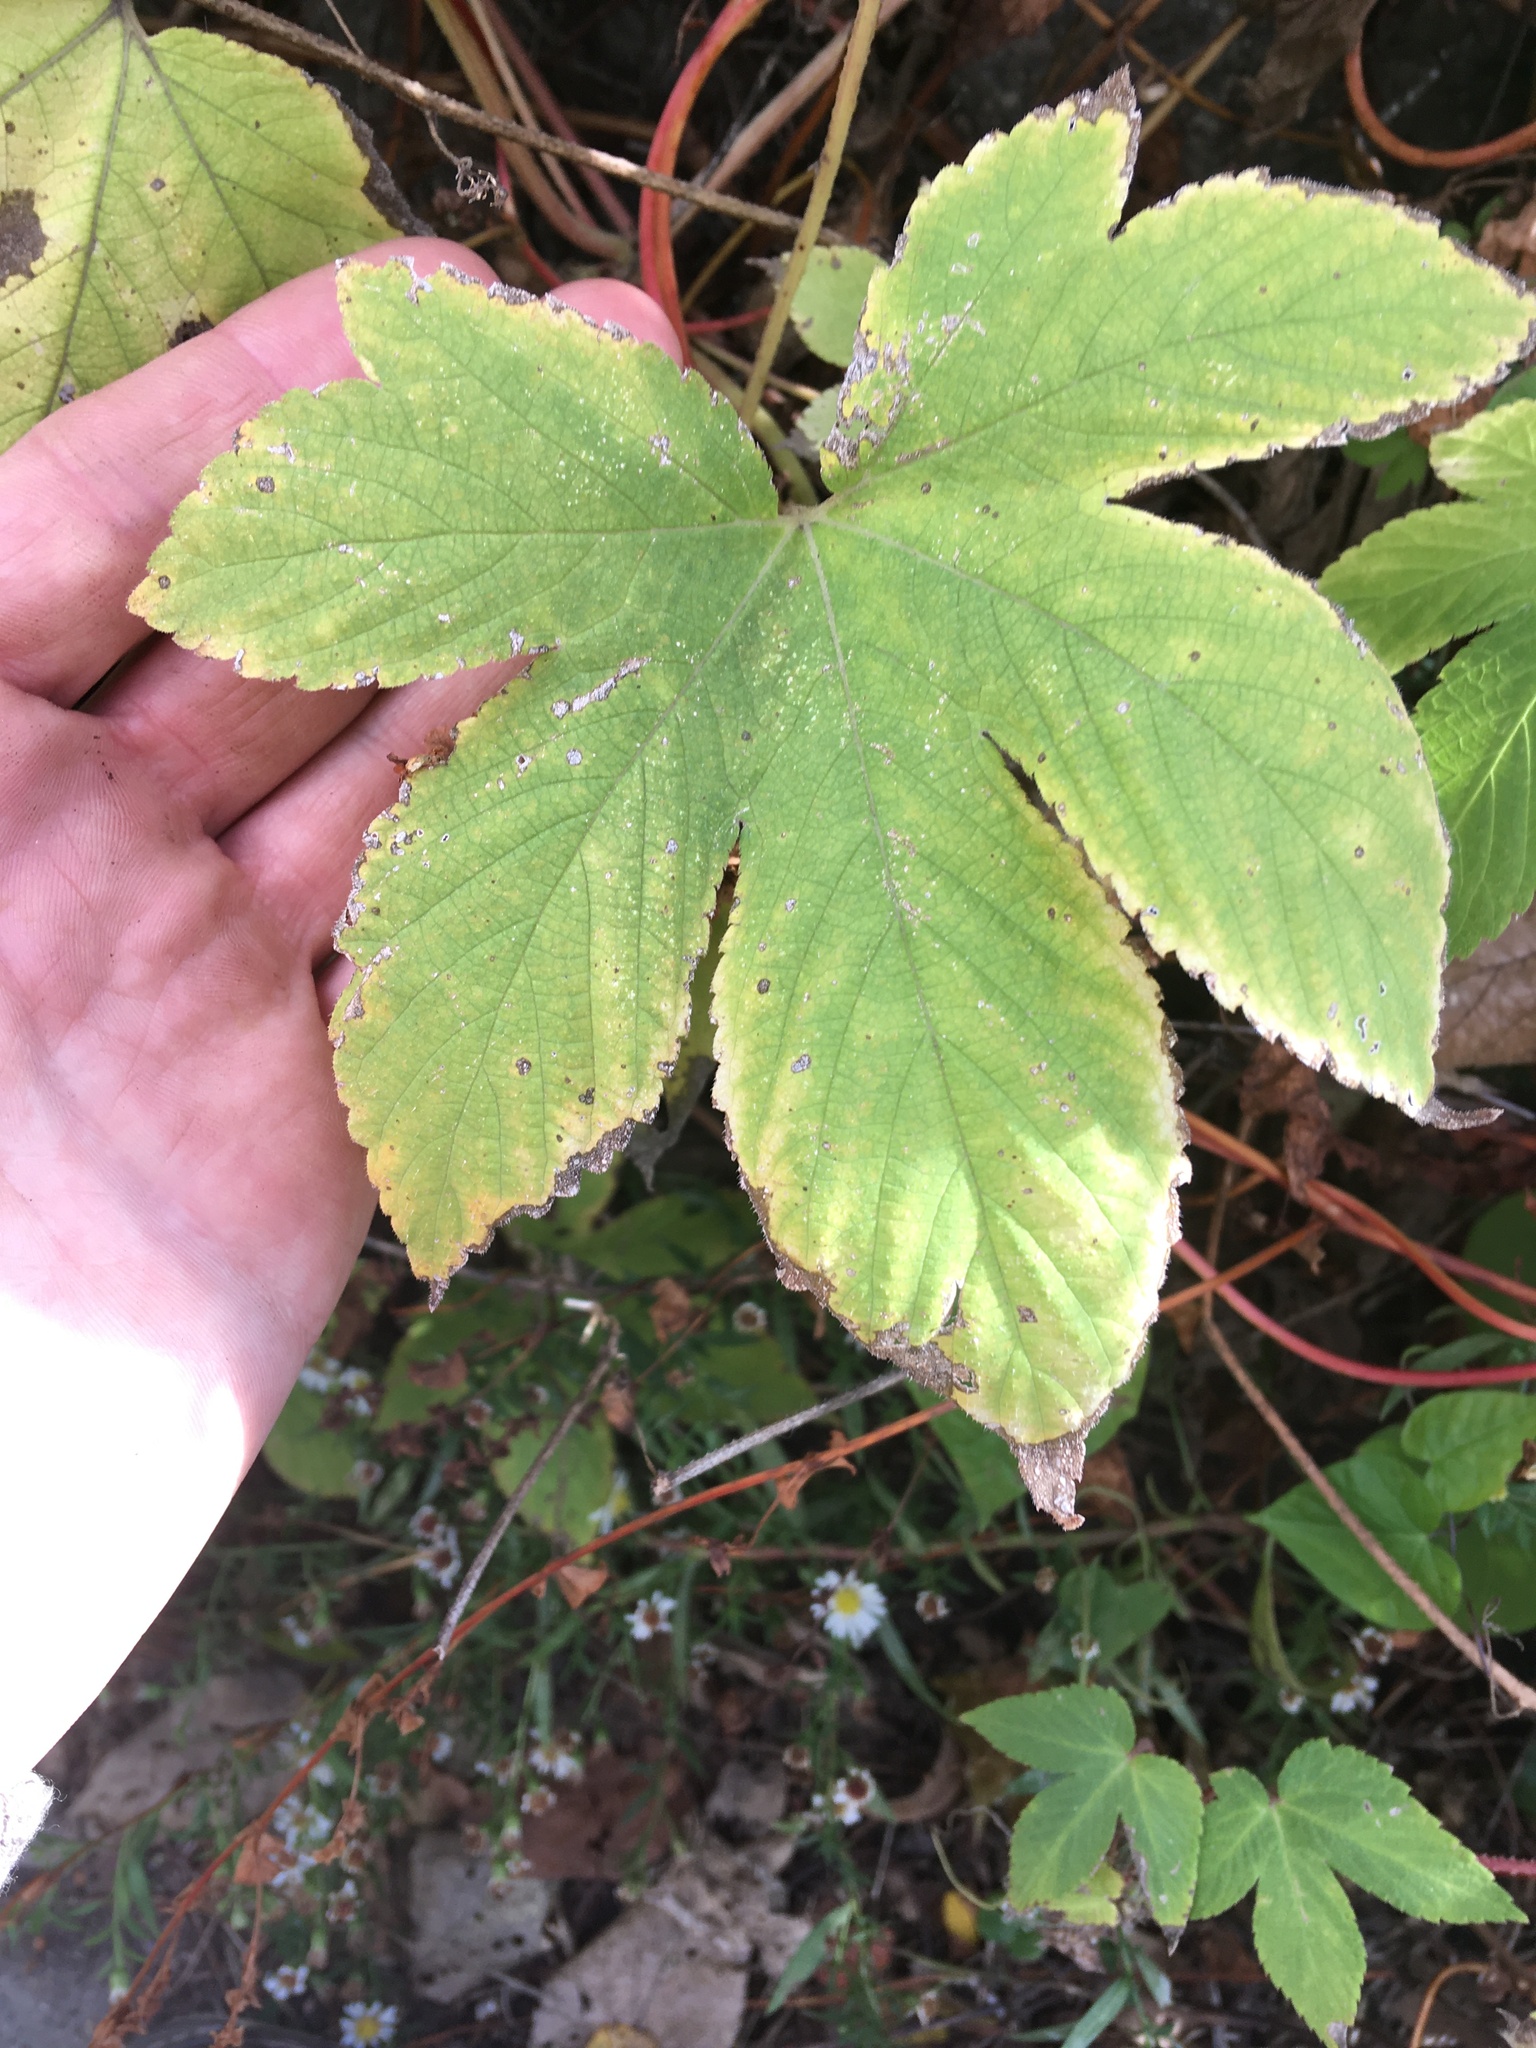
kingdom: Plantae
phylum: Tracheophyta
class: Magnoliopsida
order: Rosales
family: Cannabaceae
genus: Humulus
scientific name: Humulus scandens
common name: Japanese hop
